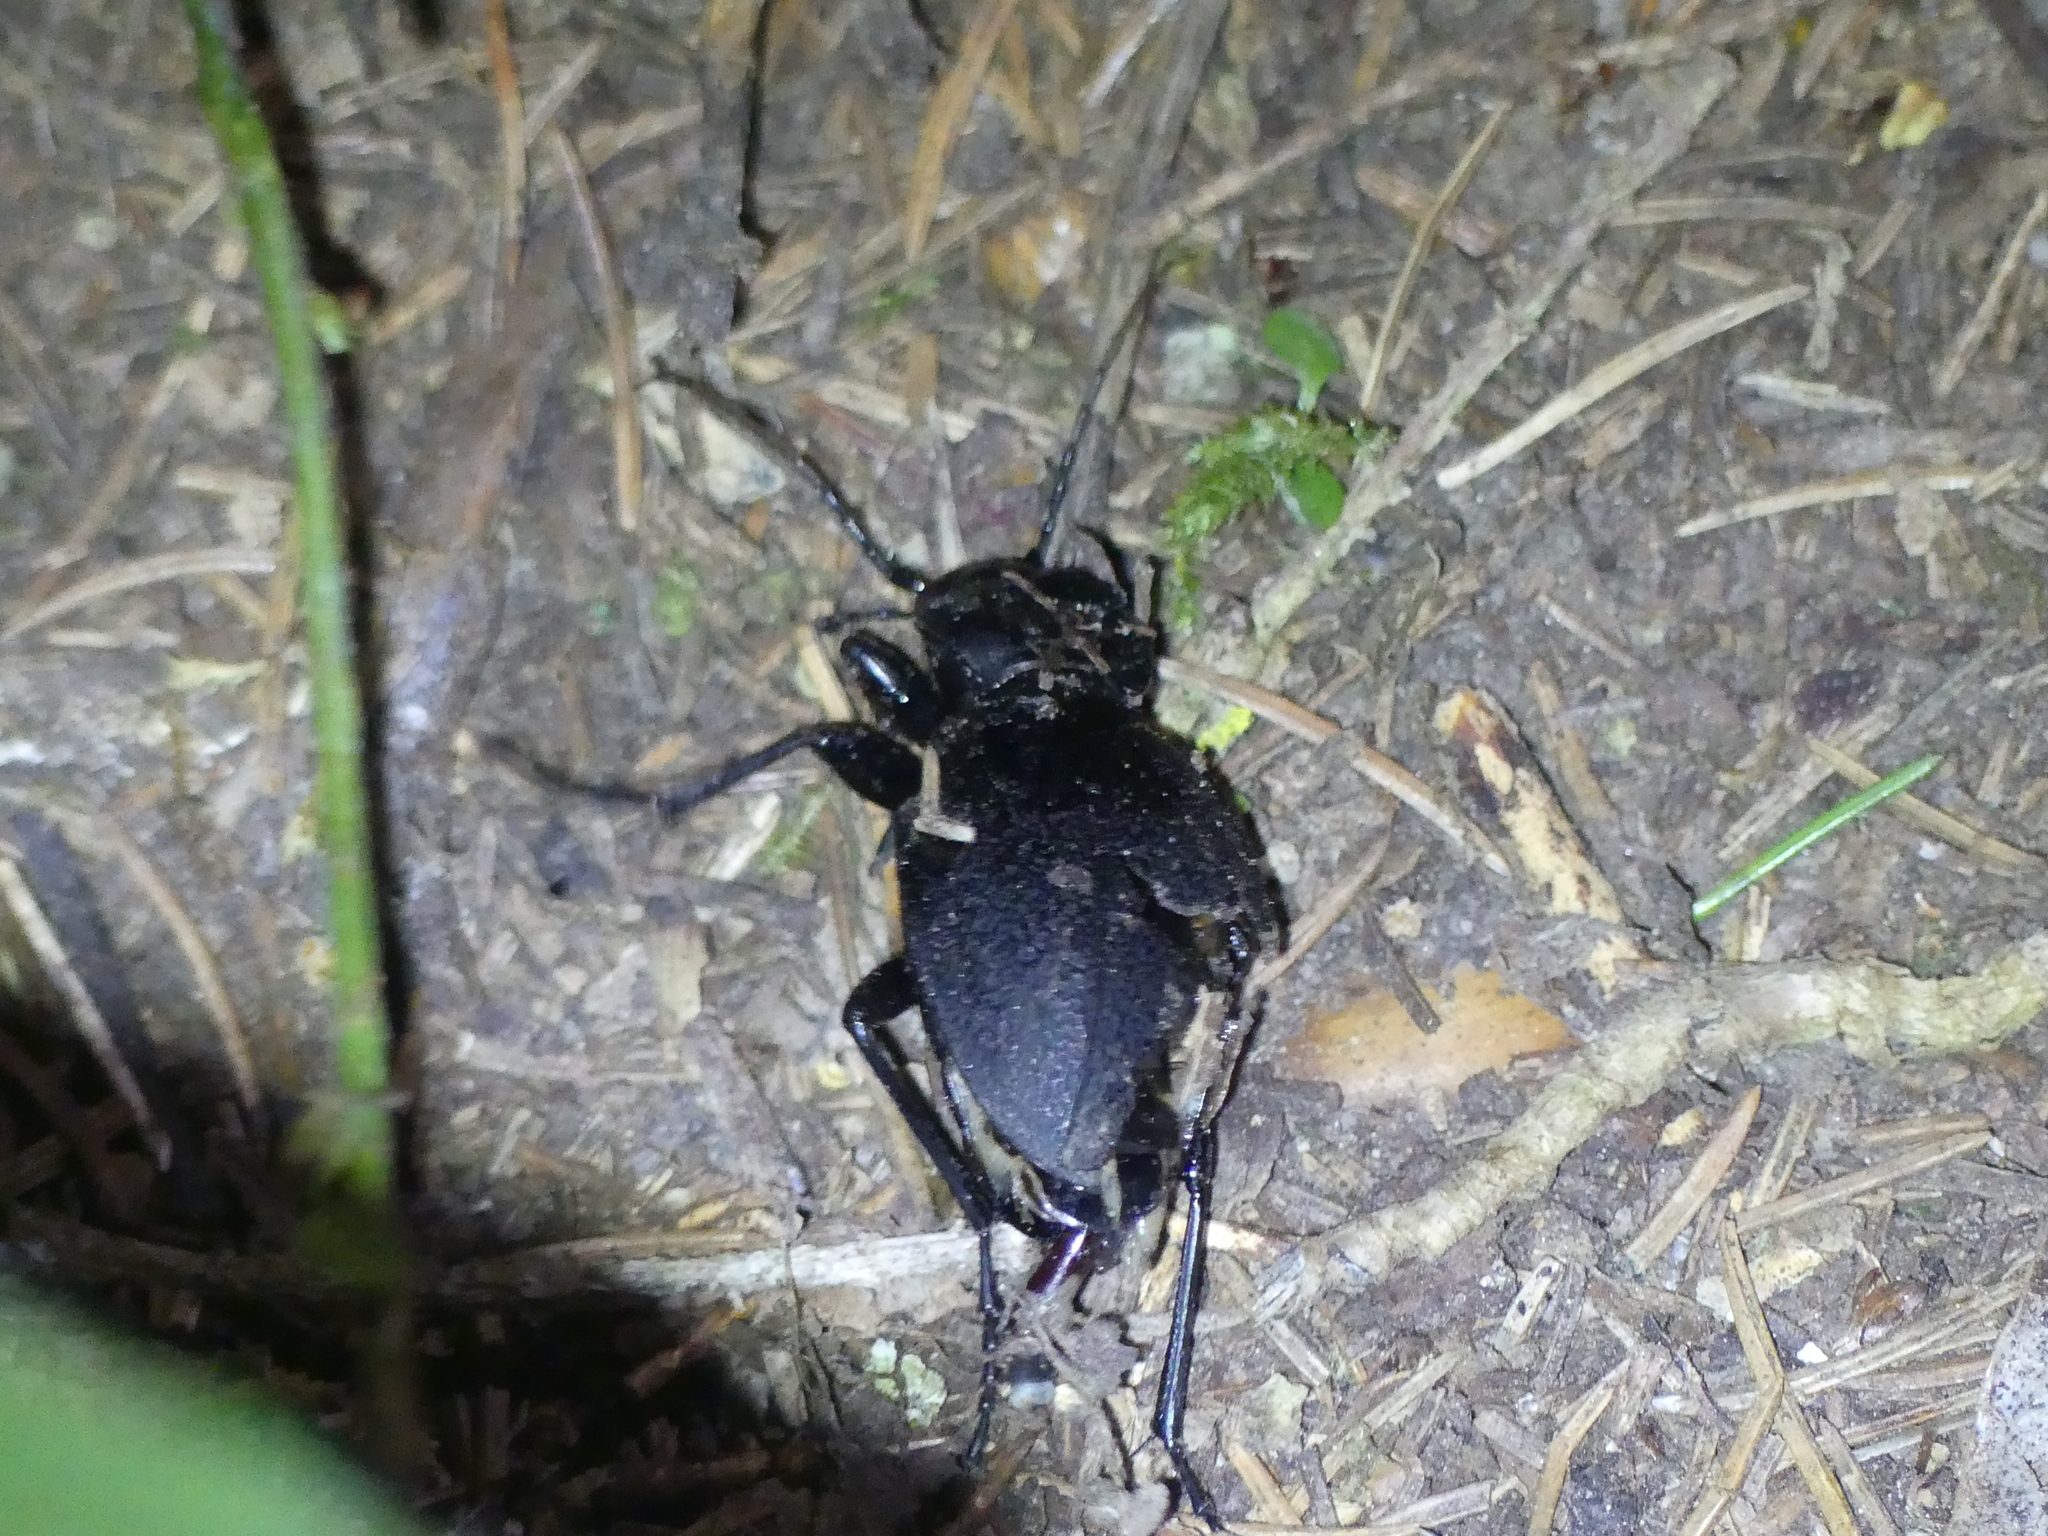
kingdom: Animalia
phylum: Arthropoda
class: Insecta
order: Coleoptera
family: Carabidae
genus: Carabus
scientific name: Carabus coriaceus
